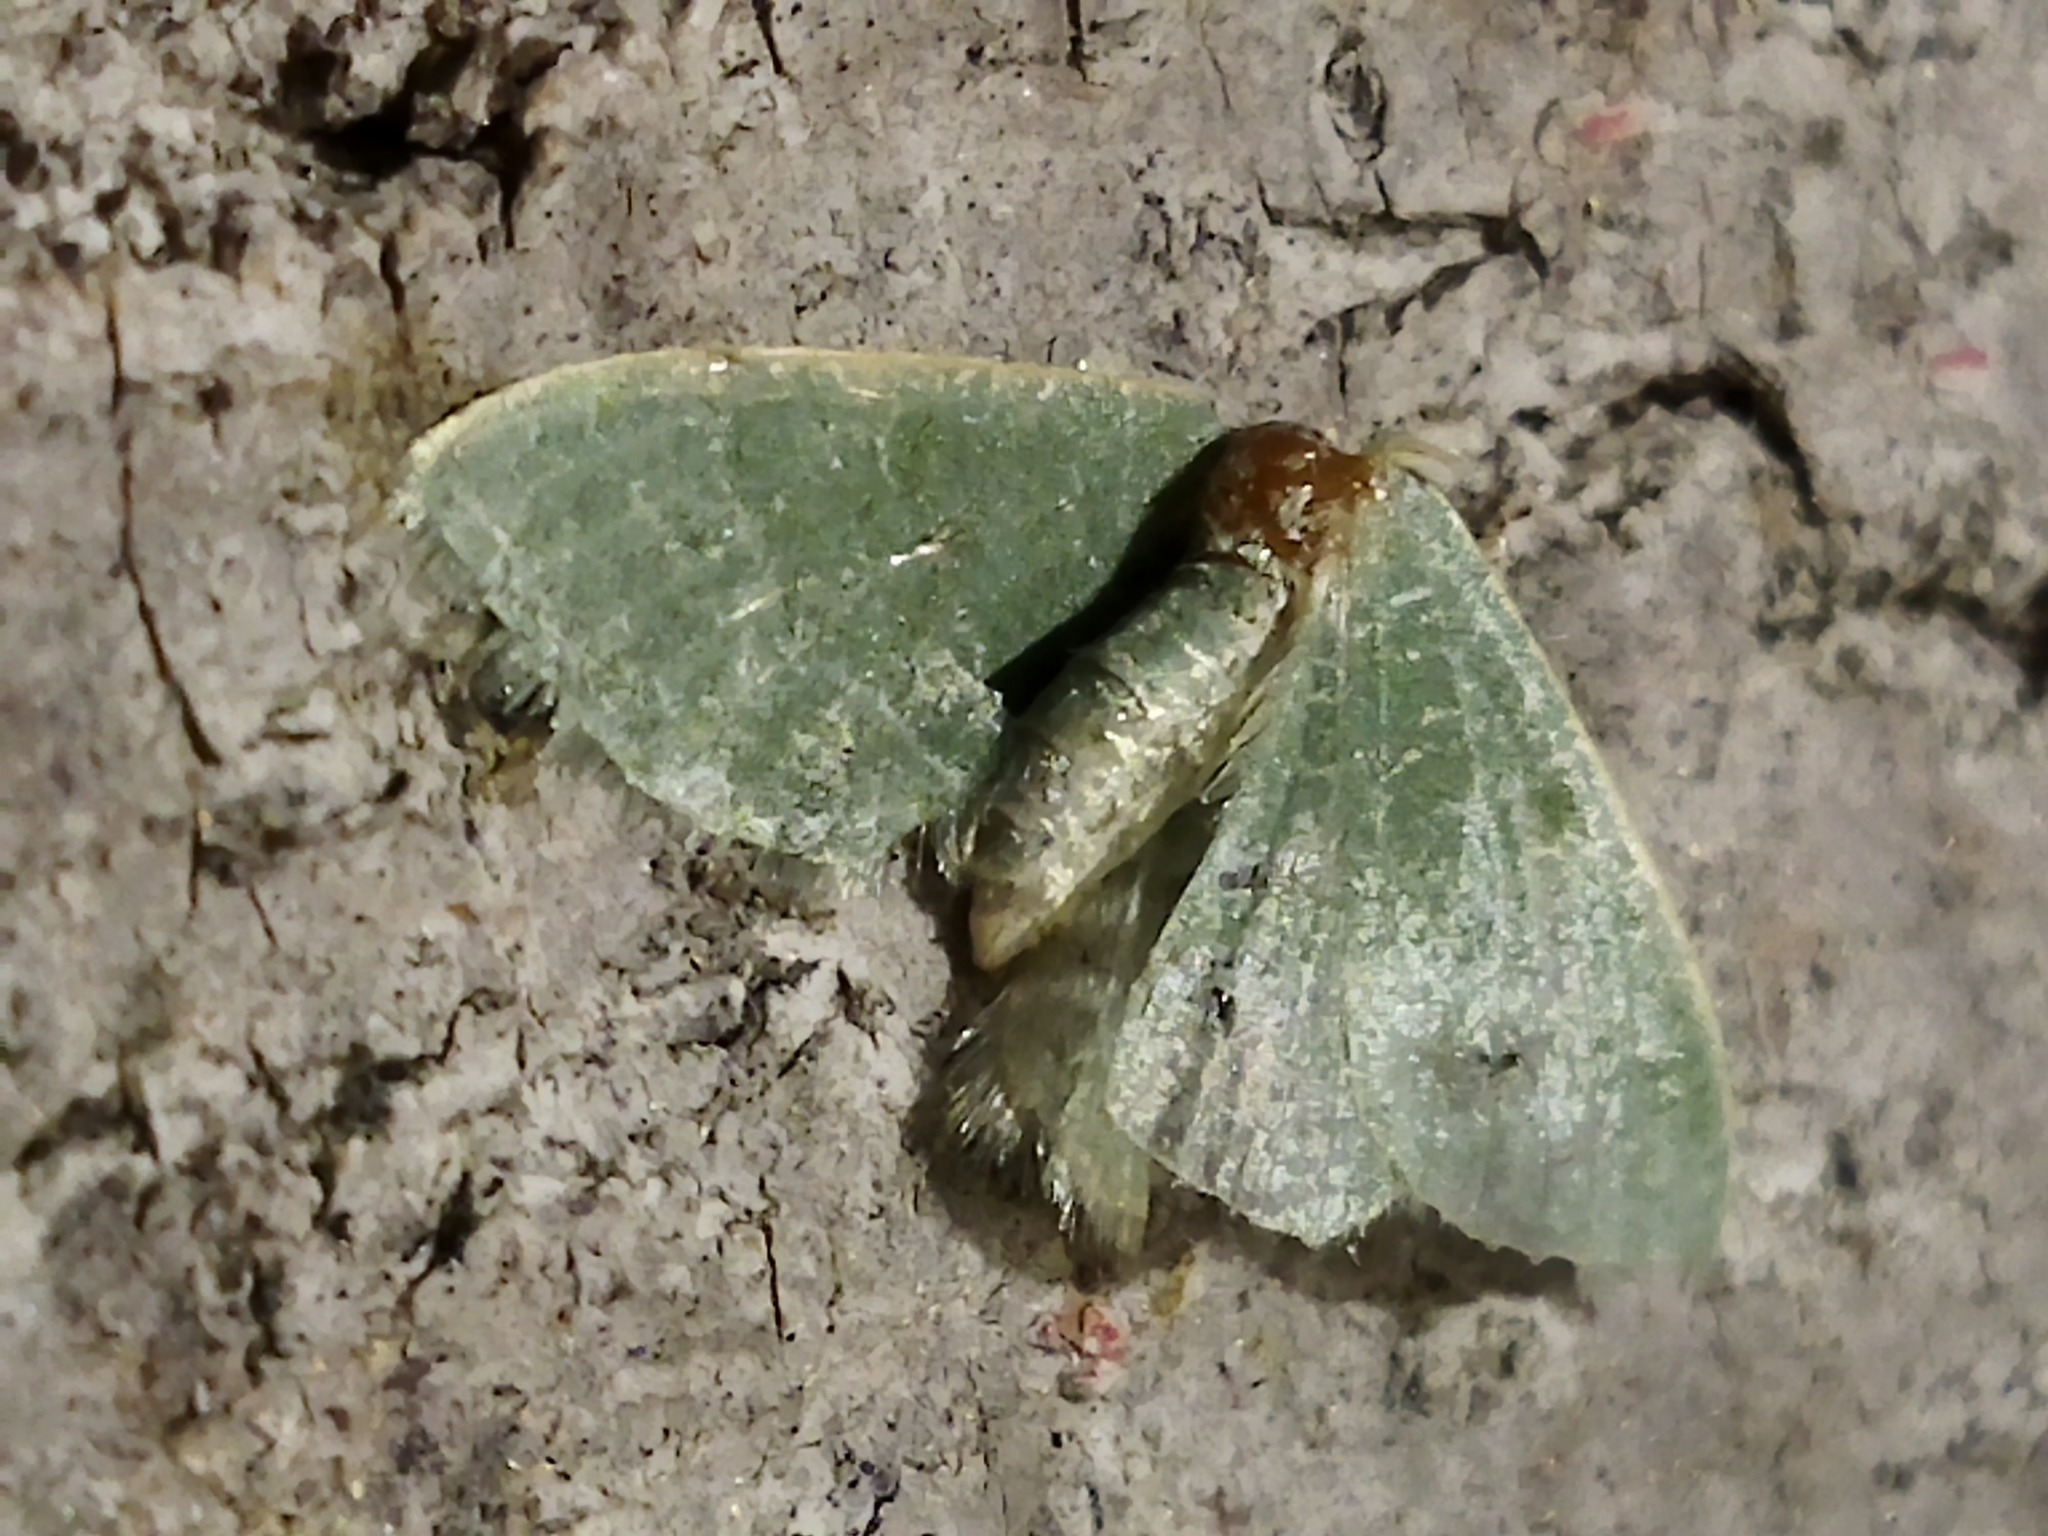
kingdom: Animalia
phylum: Arthropoda
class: Insecta
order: Lepidoptera
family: Geometridae
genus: Chlorissa
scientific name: Chlorissa etruscaria
